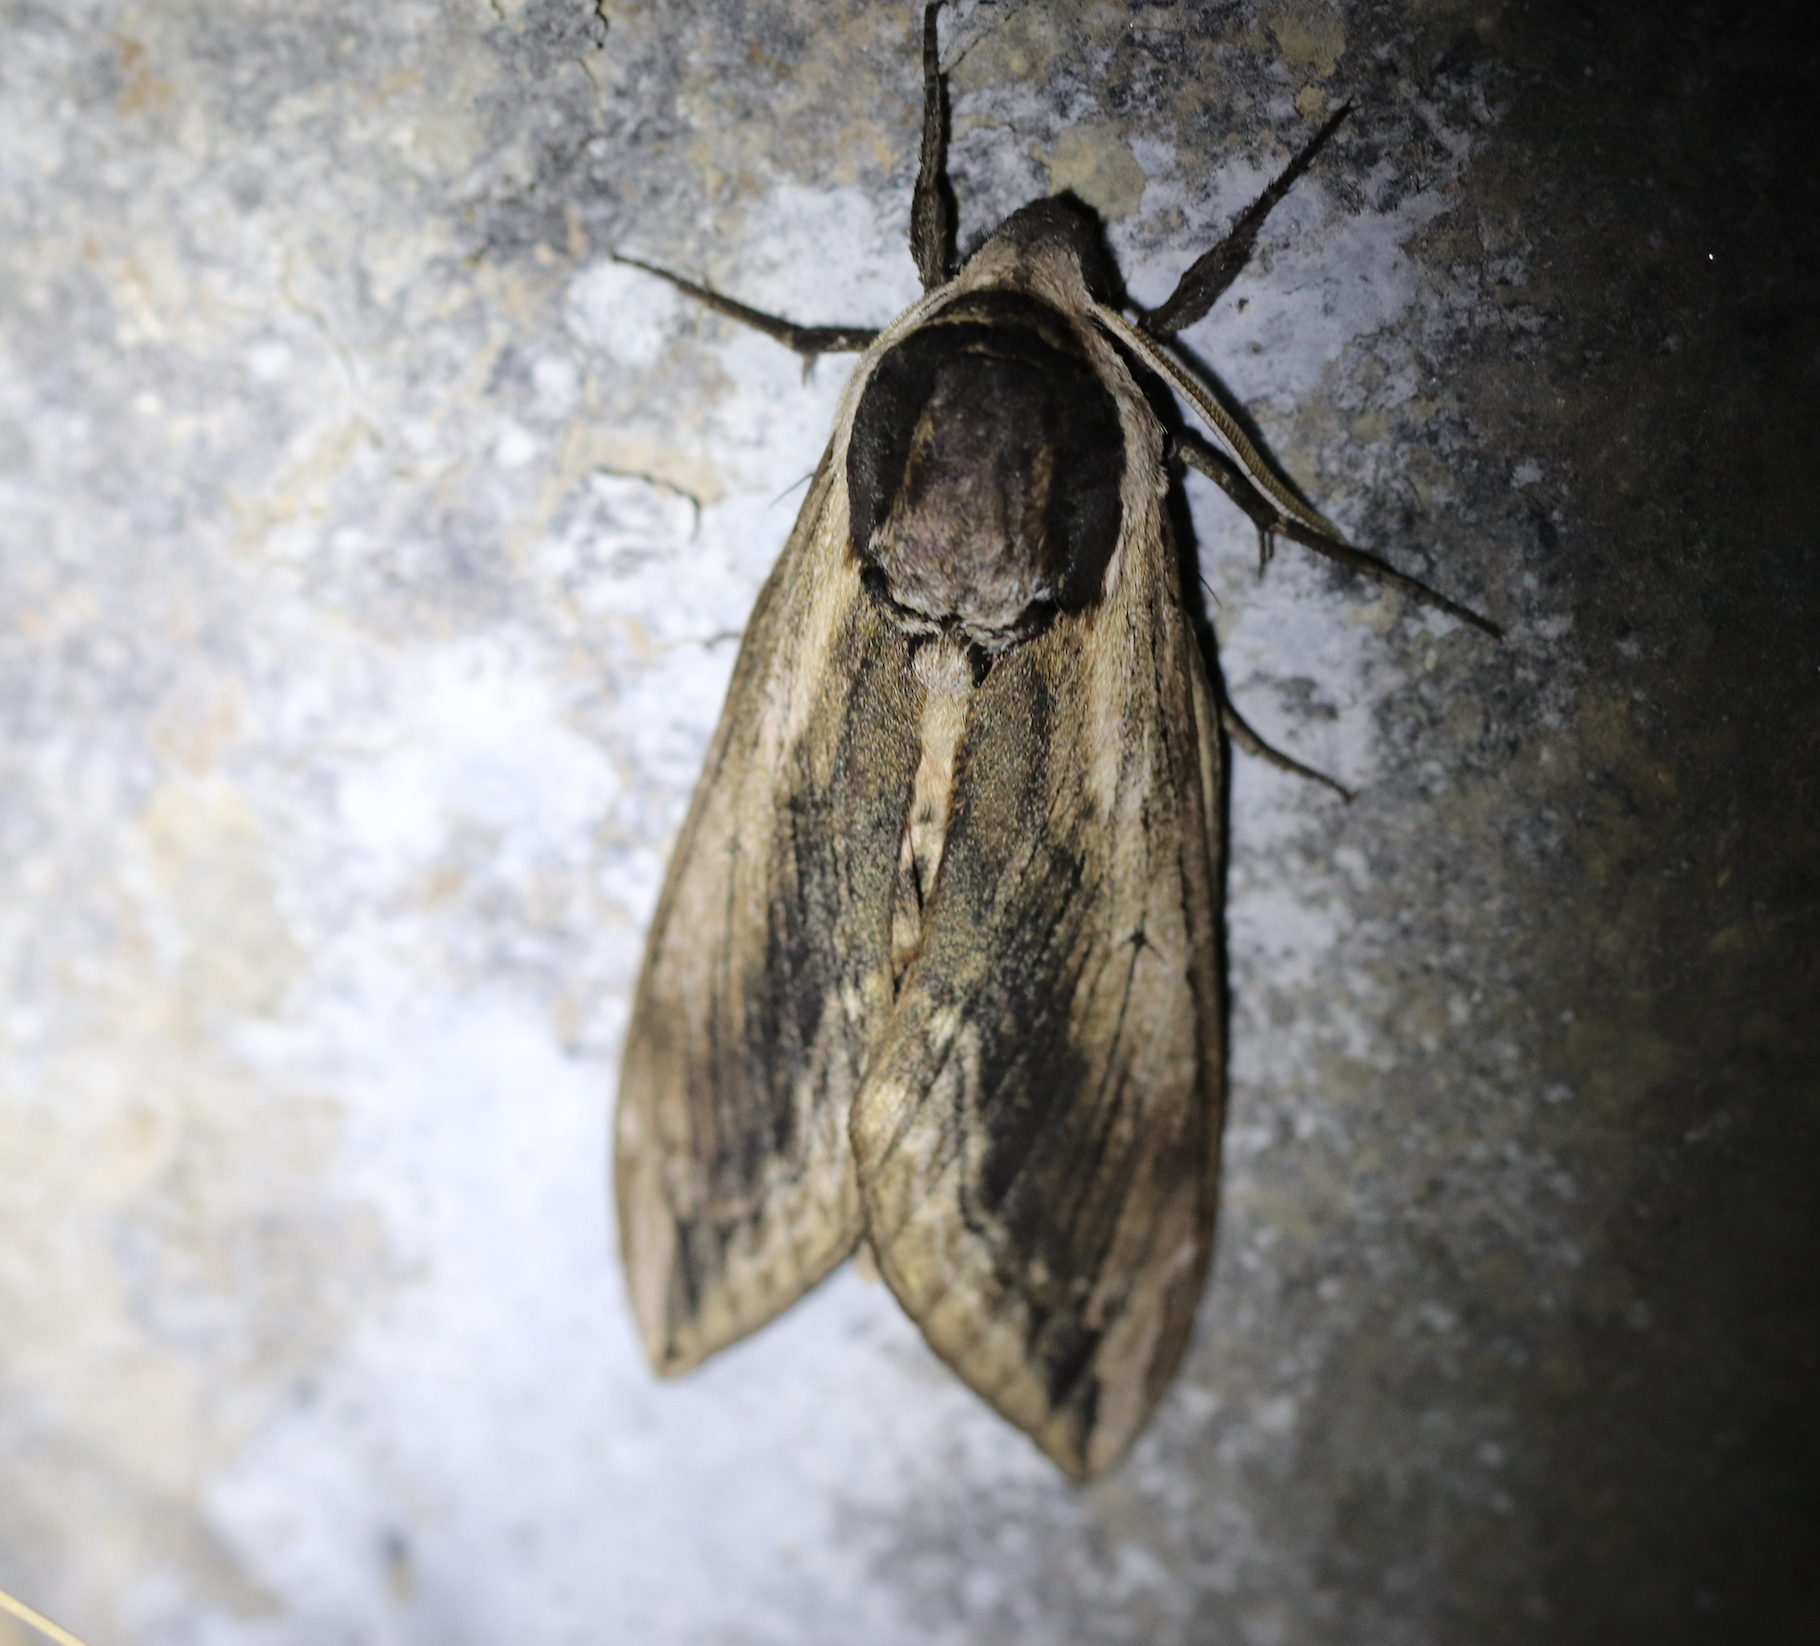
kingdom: Animalia
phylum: Arthropoda
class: Insecta
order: Lepidoptera
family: Sphingidae
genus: Sphinx
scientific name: Sphinx ligustri
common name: Privet hawk-moth
